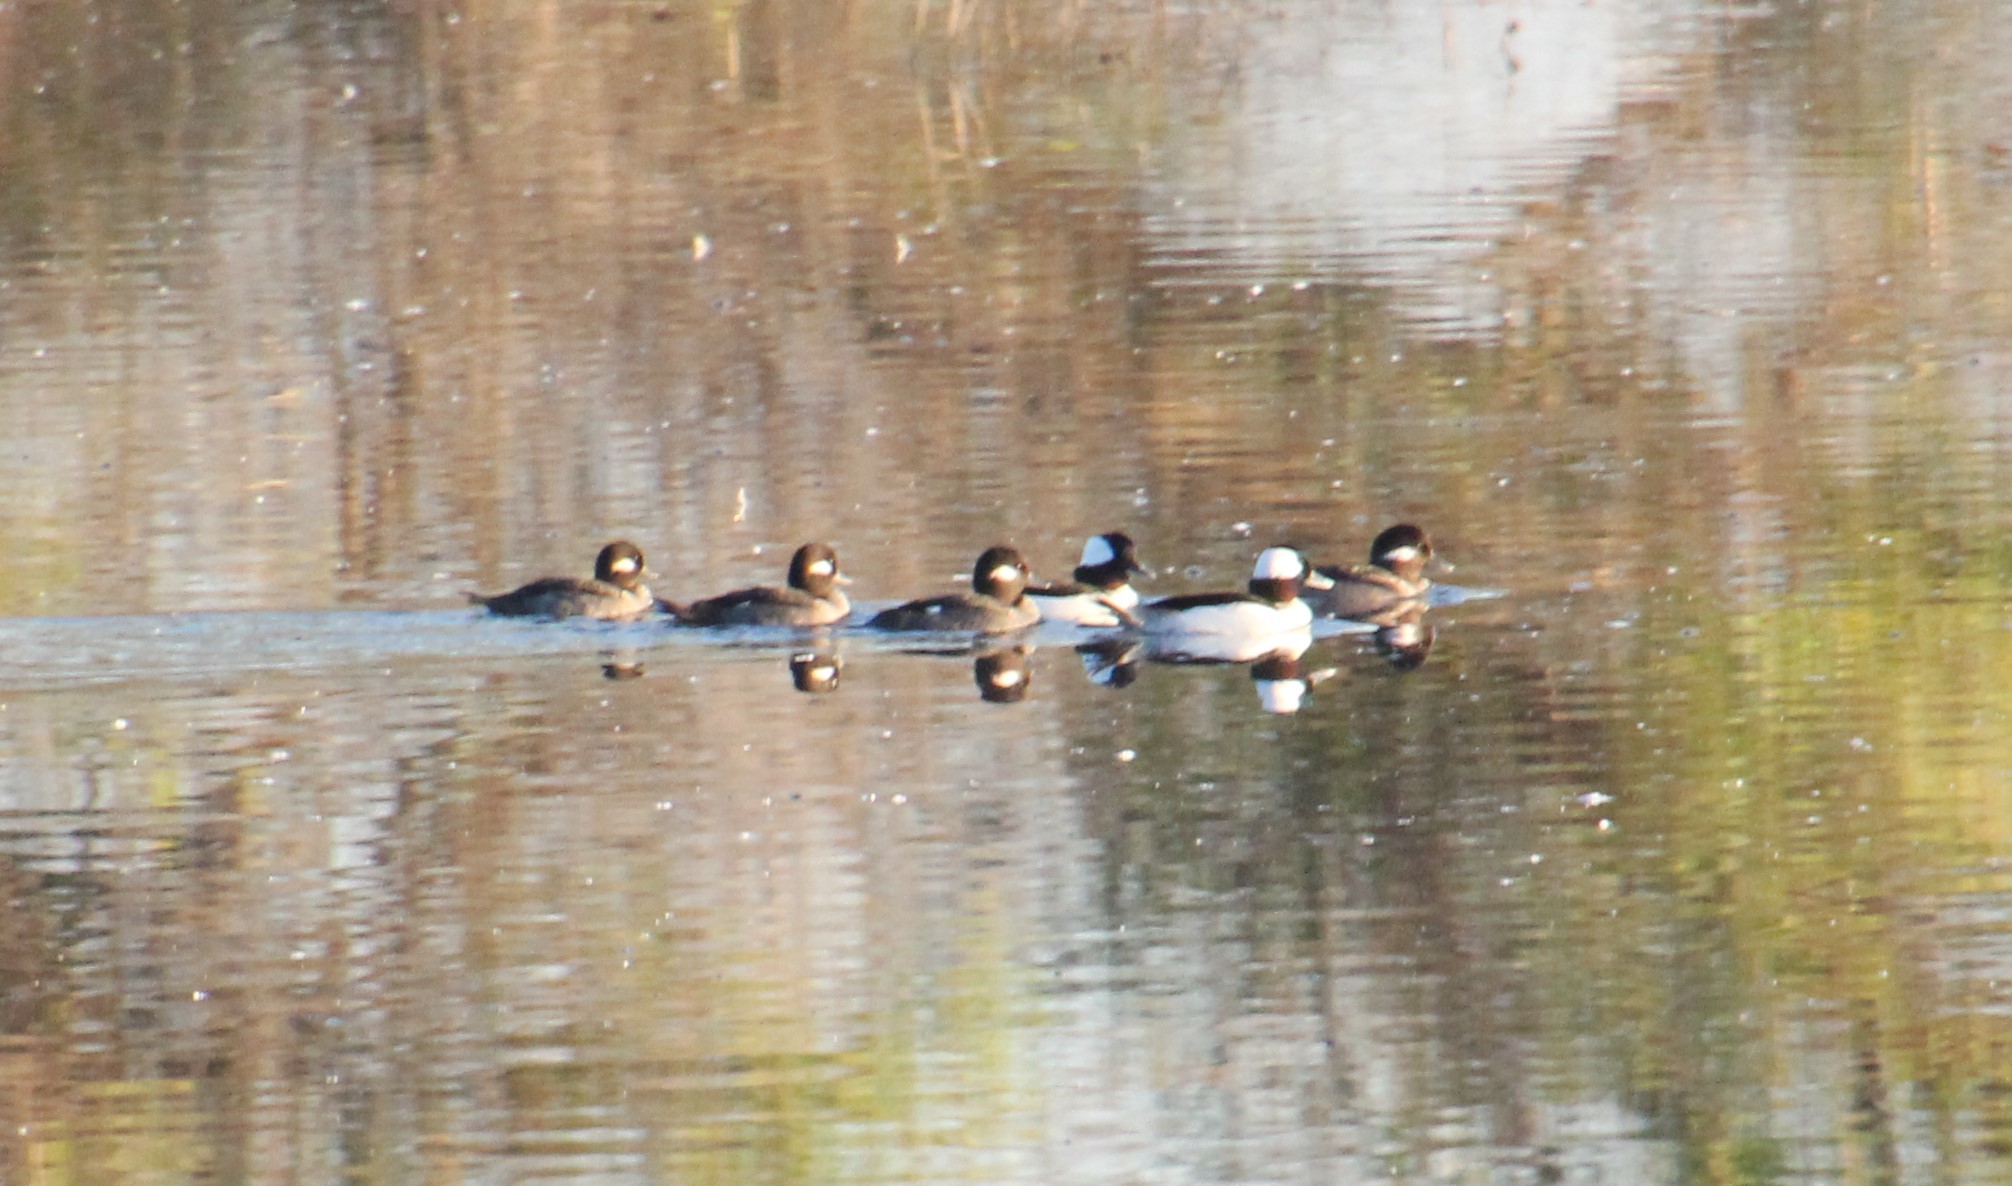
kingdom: Animalia
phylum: Chordata
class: Aves
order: Anseriformes
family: Anatidae
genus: Bucephala
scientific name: Bucephala albeola
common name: Bufflehead
